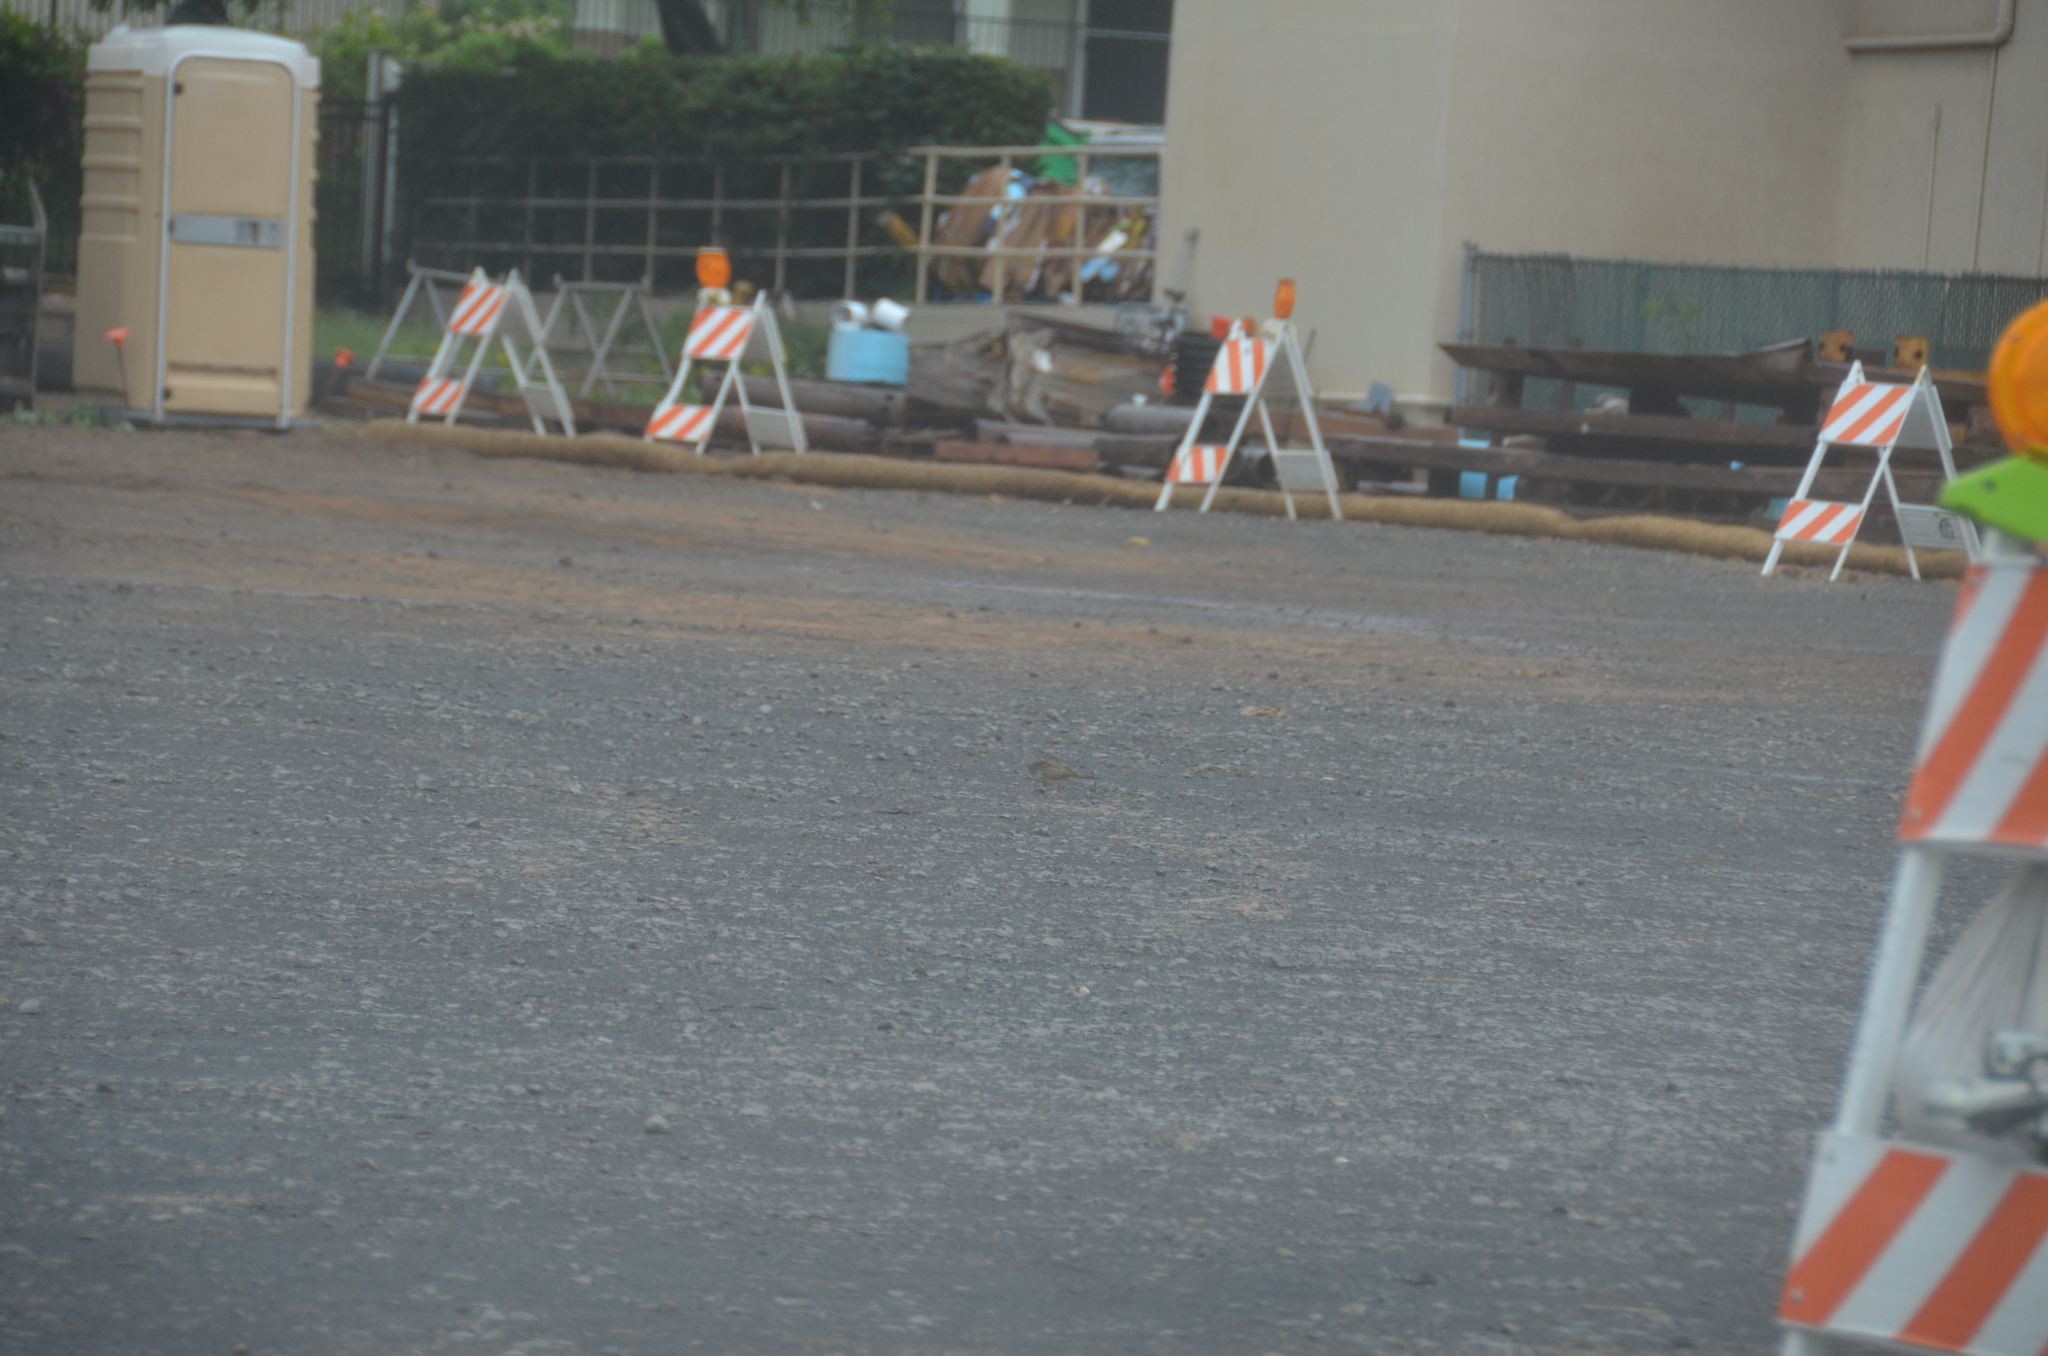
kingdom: Animalia
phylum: Chordata
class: Aves
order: Columbiformes
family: Columbidae
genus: Geopelia
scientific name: Geopelia striata
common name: Zebra dove
